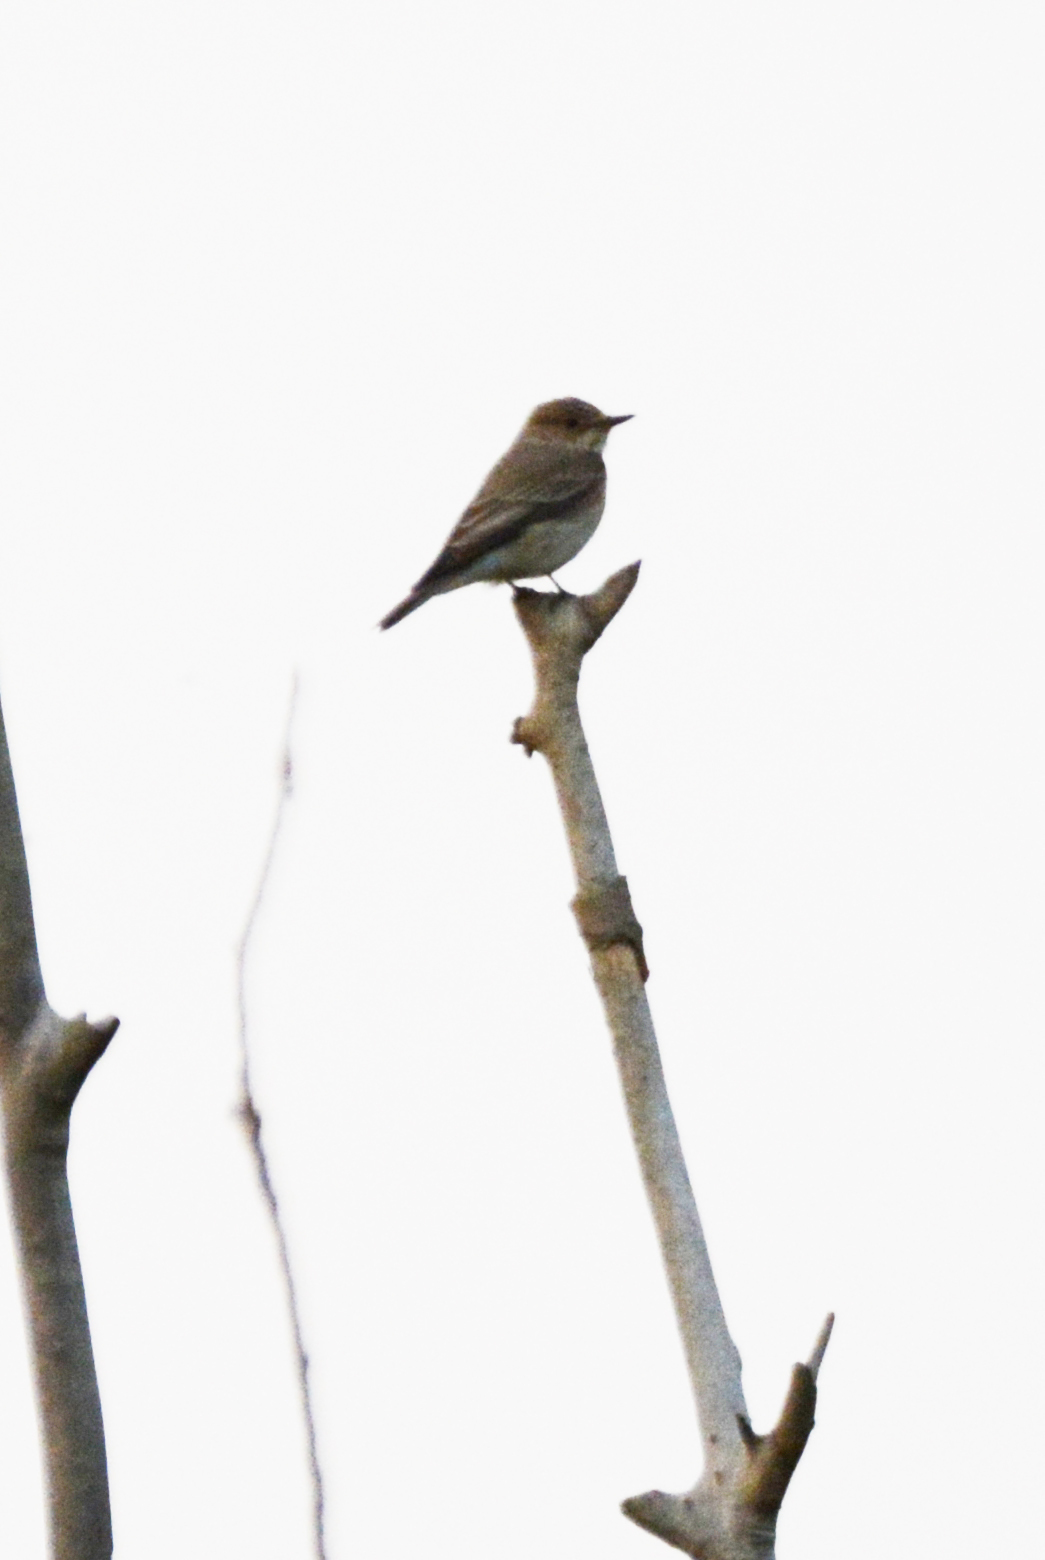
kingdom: Animalia
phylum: Chordata
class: Aves
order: Passeriformes
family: Muscicapidae
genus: Muscicapa
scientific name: Muscicapa striata
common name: Spotted flycatcher
